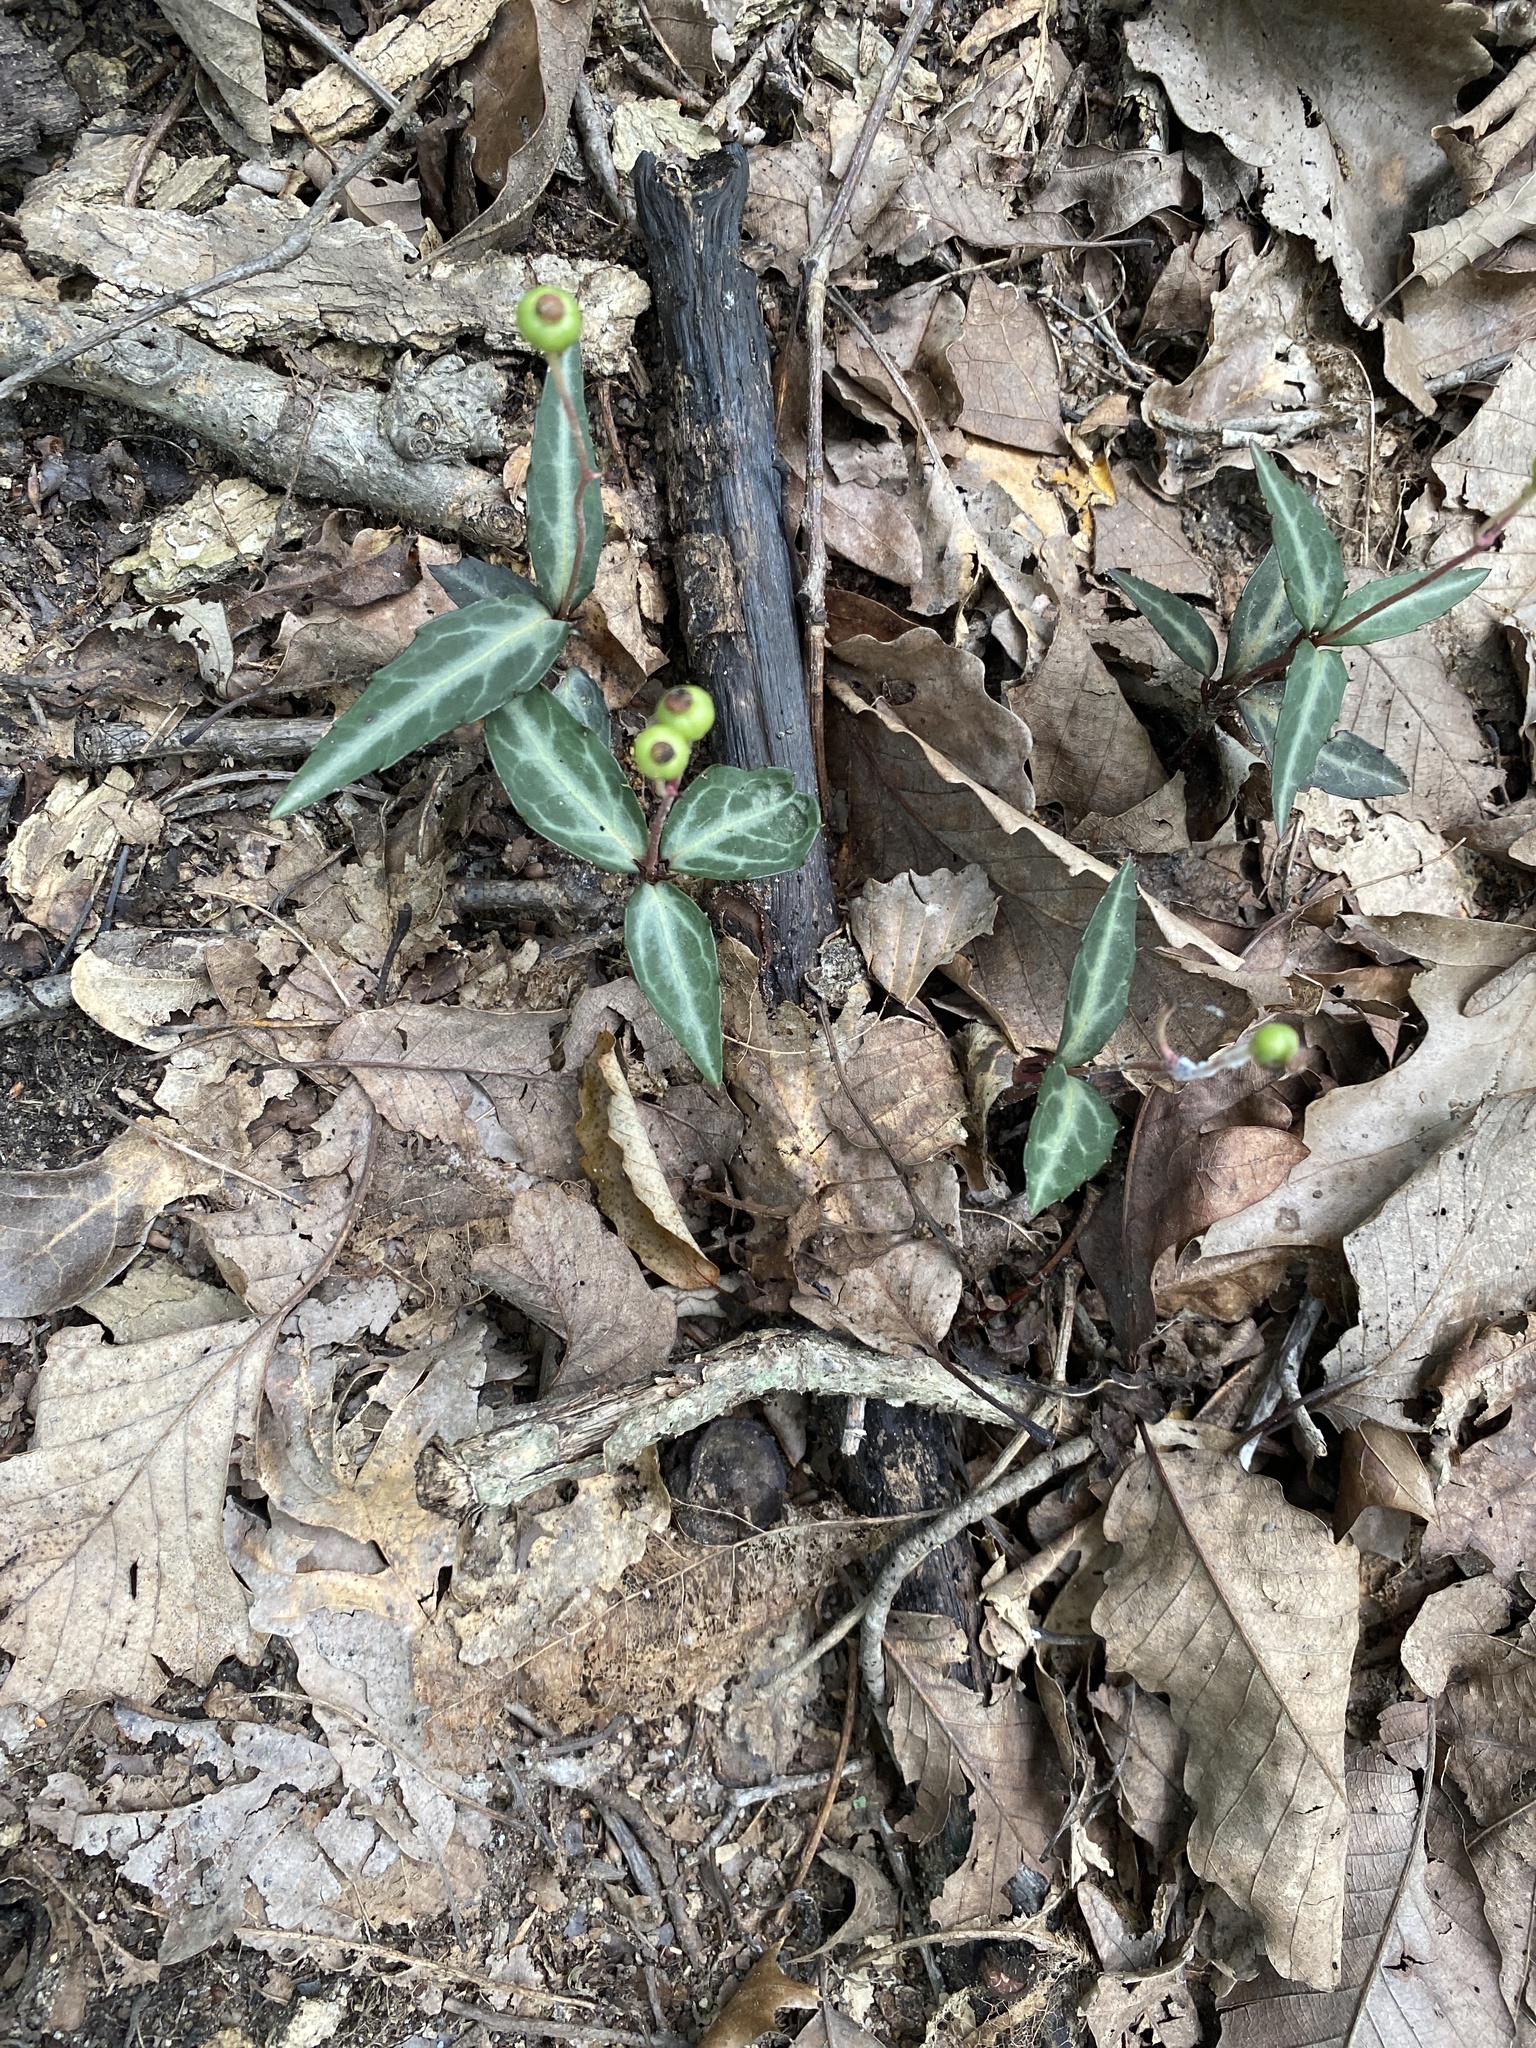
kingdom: Plantae
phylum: Tracheophyta
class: Magnoliopsida
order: Ericales
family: Ericaceae
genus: Chimaphila
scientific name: Chimaphila maculata
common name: Spotted pipsissewa
